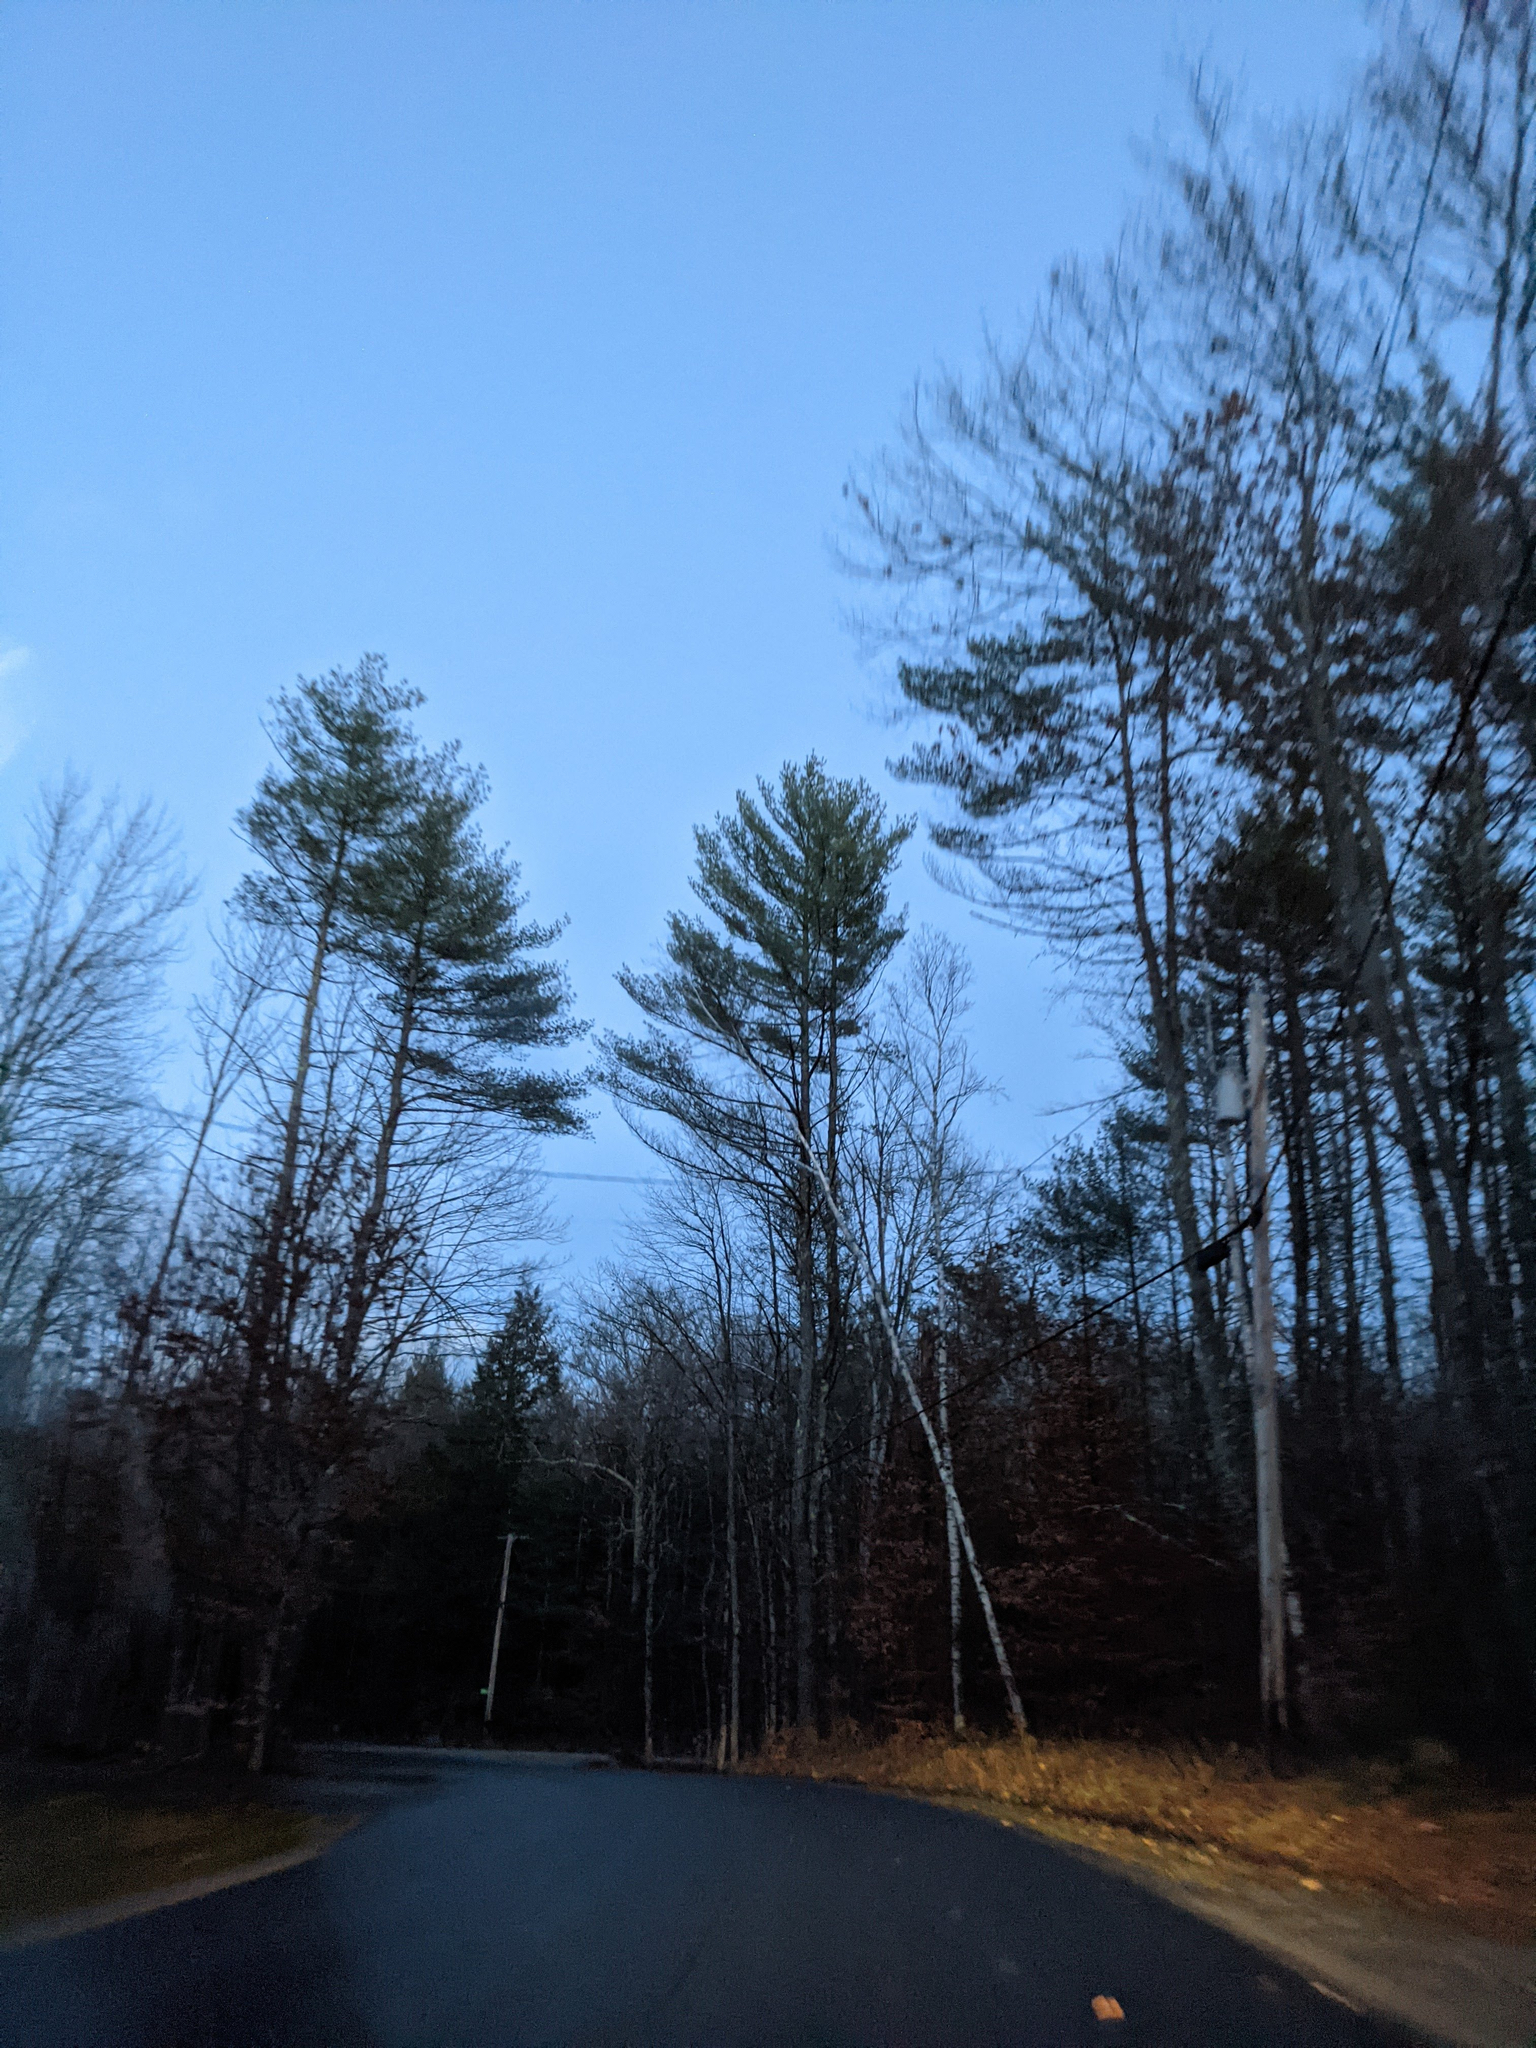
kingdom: Plantae
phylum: Tracheophyta
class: Pinopsida
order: Pinales
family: Pinaceae
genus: Pinus
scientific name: Pinus strobus
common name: Weymouth pine
